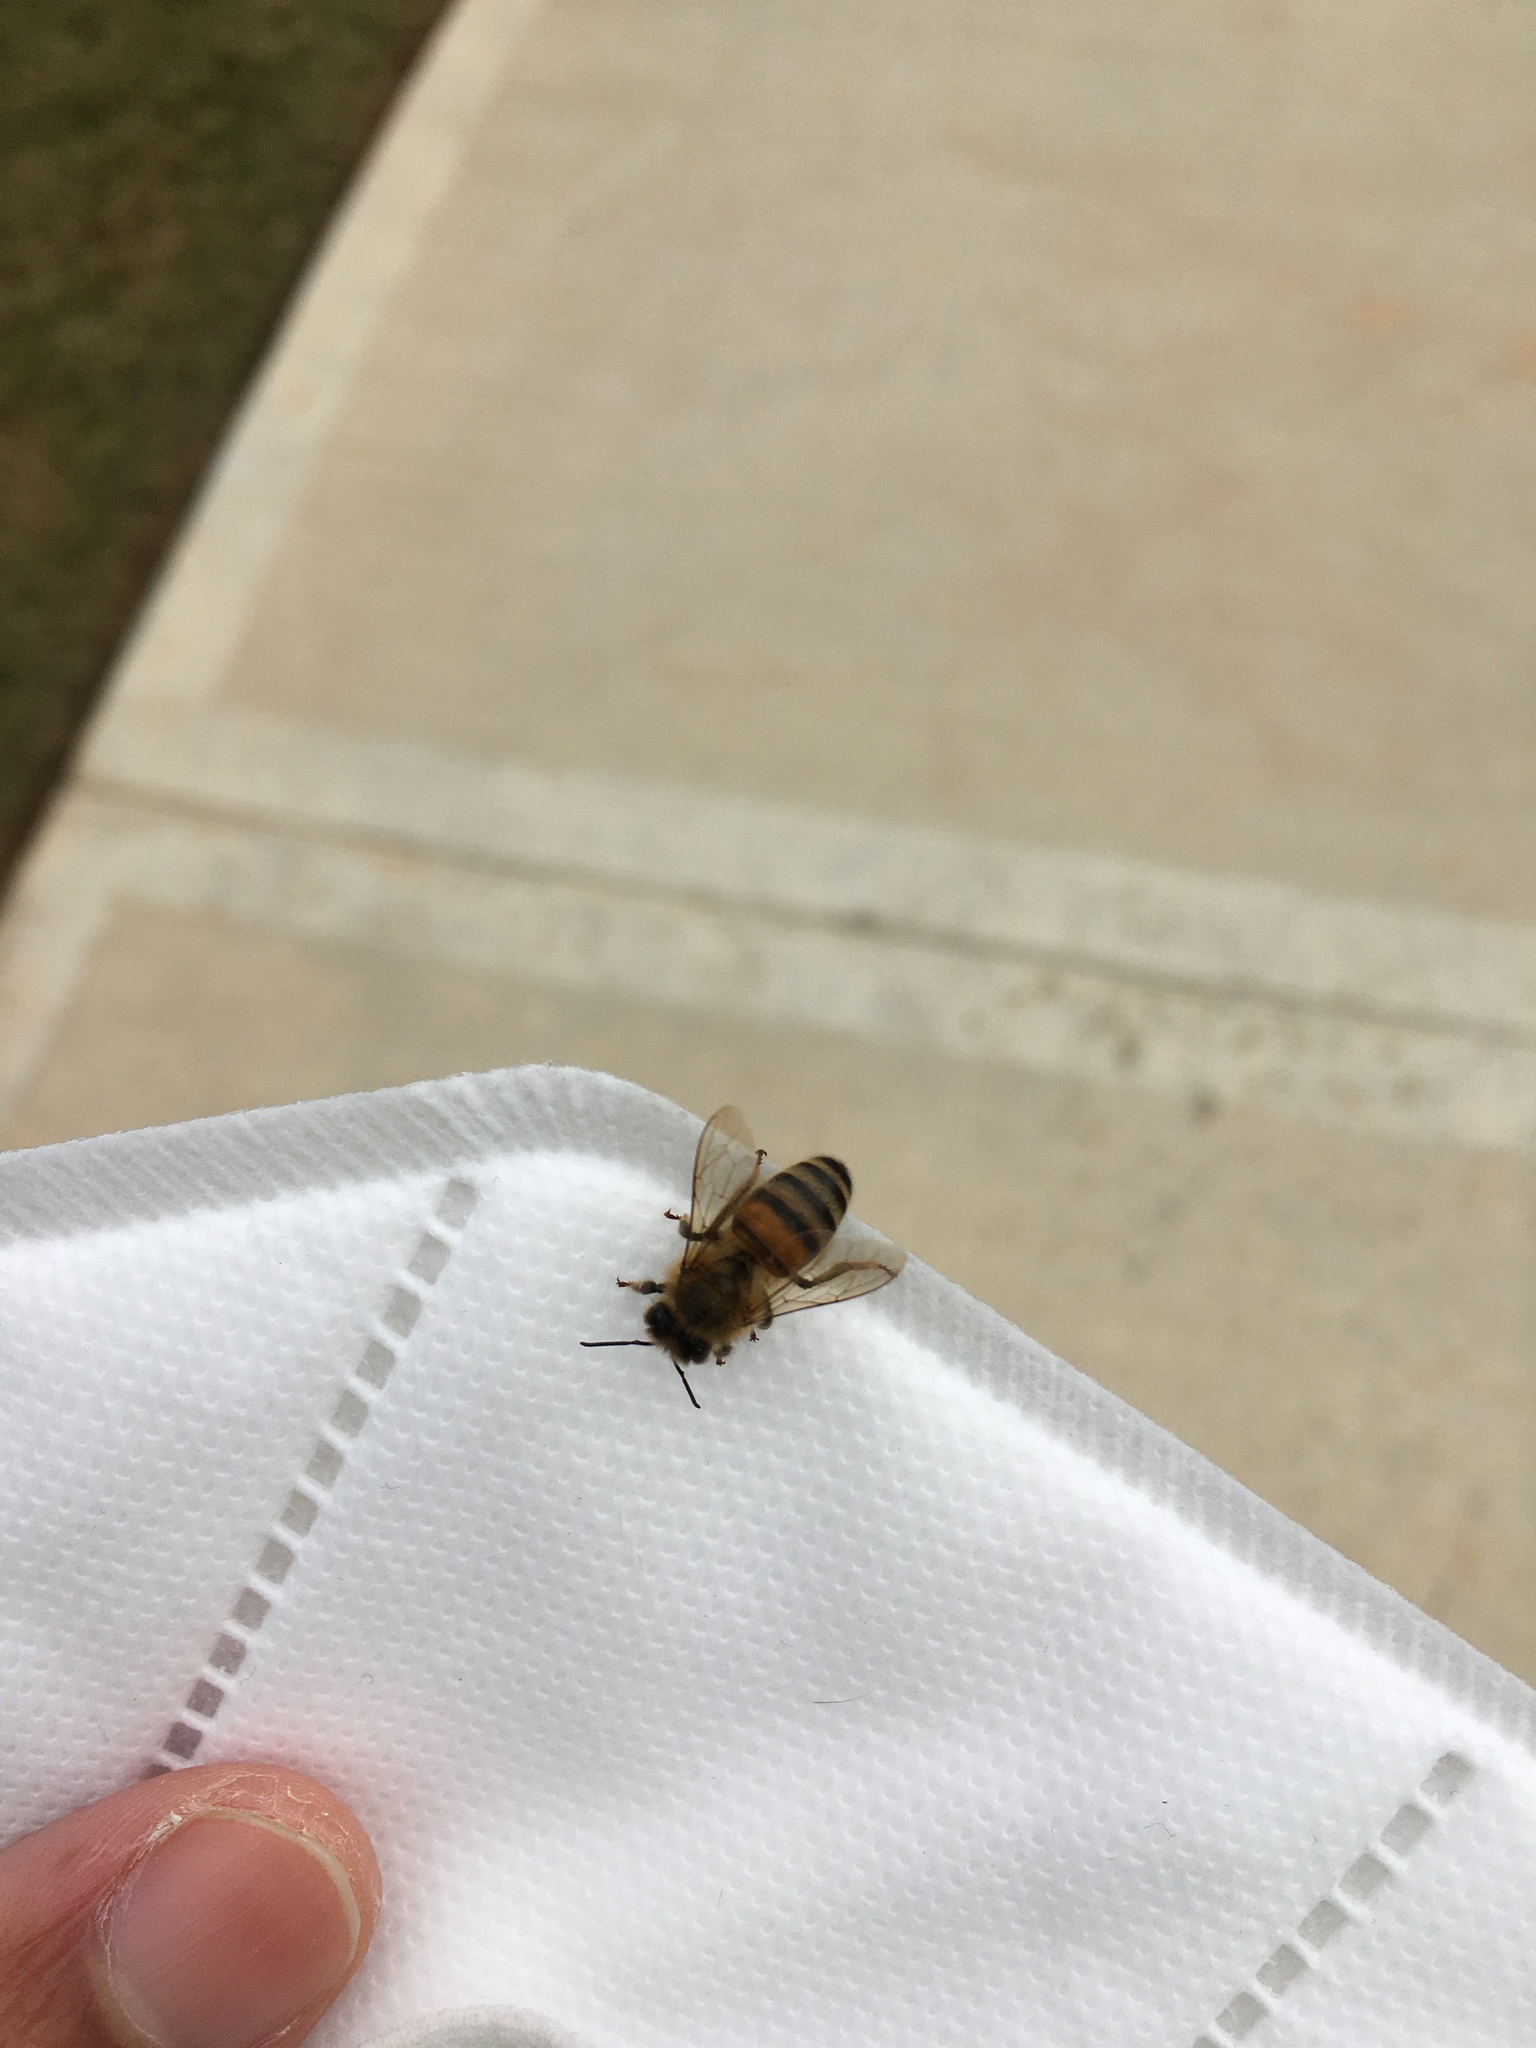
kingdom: Animalia
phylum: Arthropoda
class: Insecta
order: Hymenoptera
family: Apidae
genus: Apis
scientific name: Apis mellifera
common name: Honey bee
